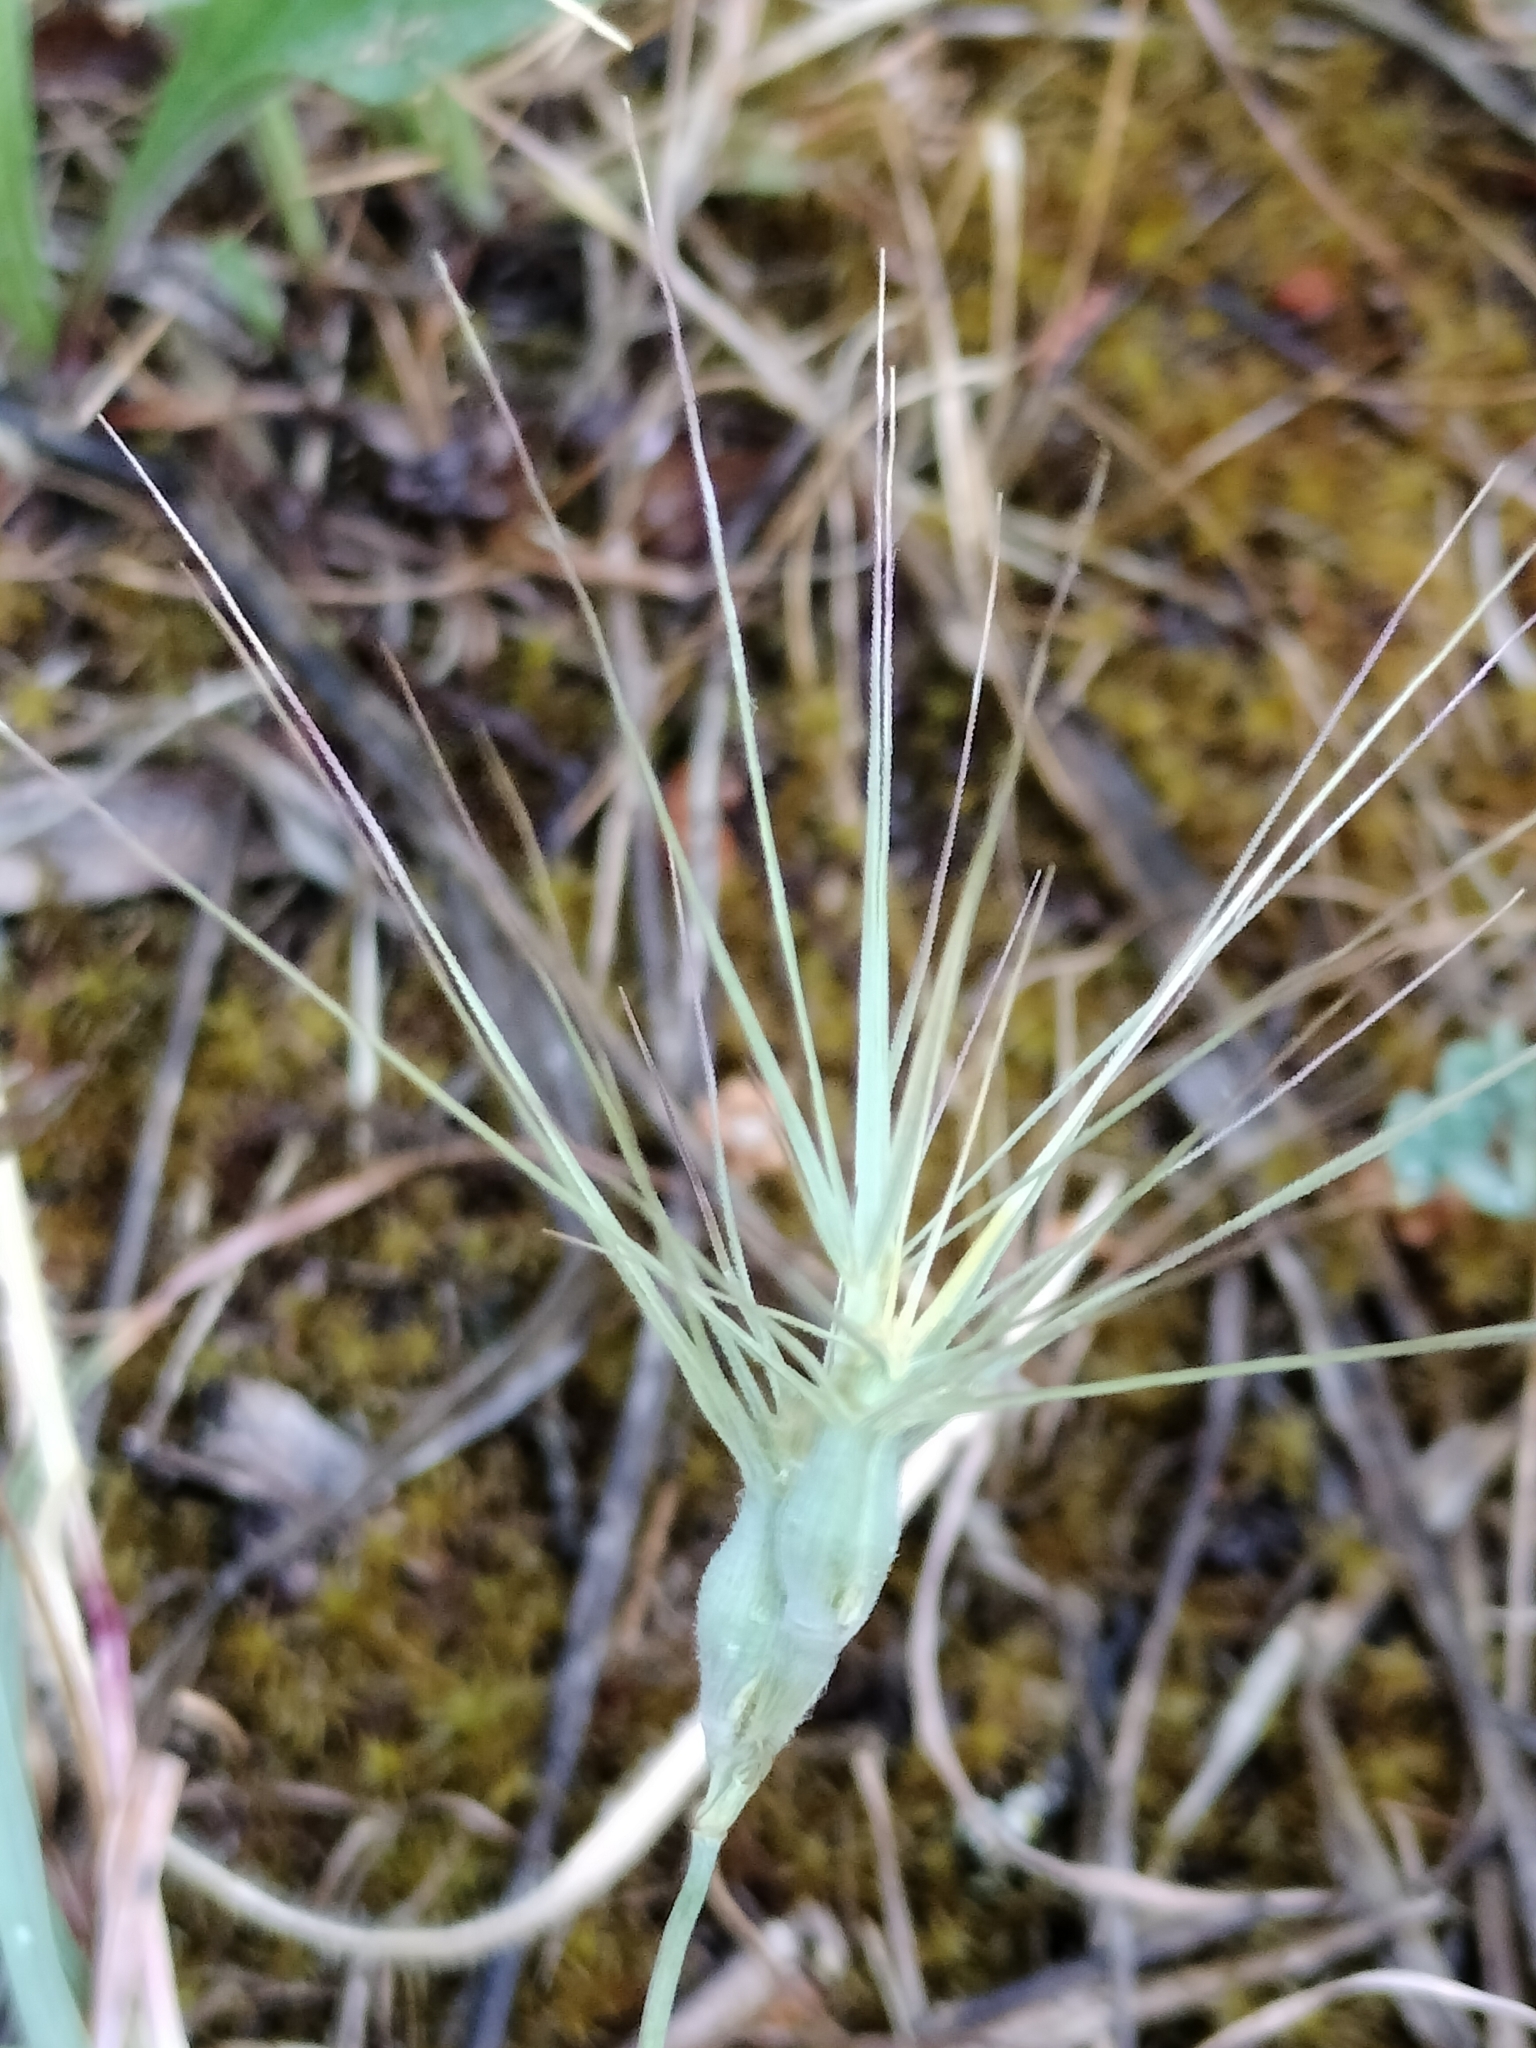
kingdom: Plantae
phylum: Tracheophyta
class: Liliopsida
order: Poales
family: Poaceae
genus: Aegilops
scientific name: Aegilops geniculata
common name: Ovate goat grass
